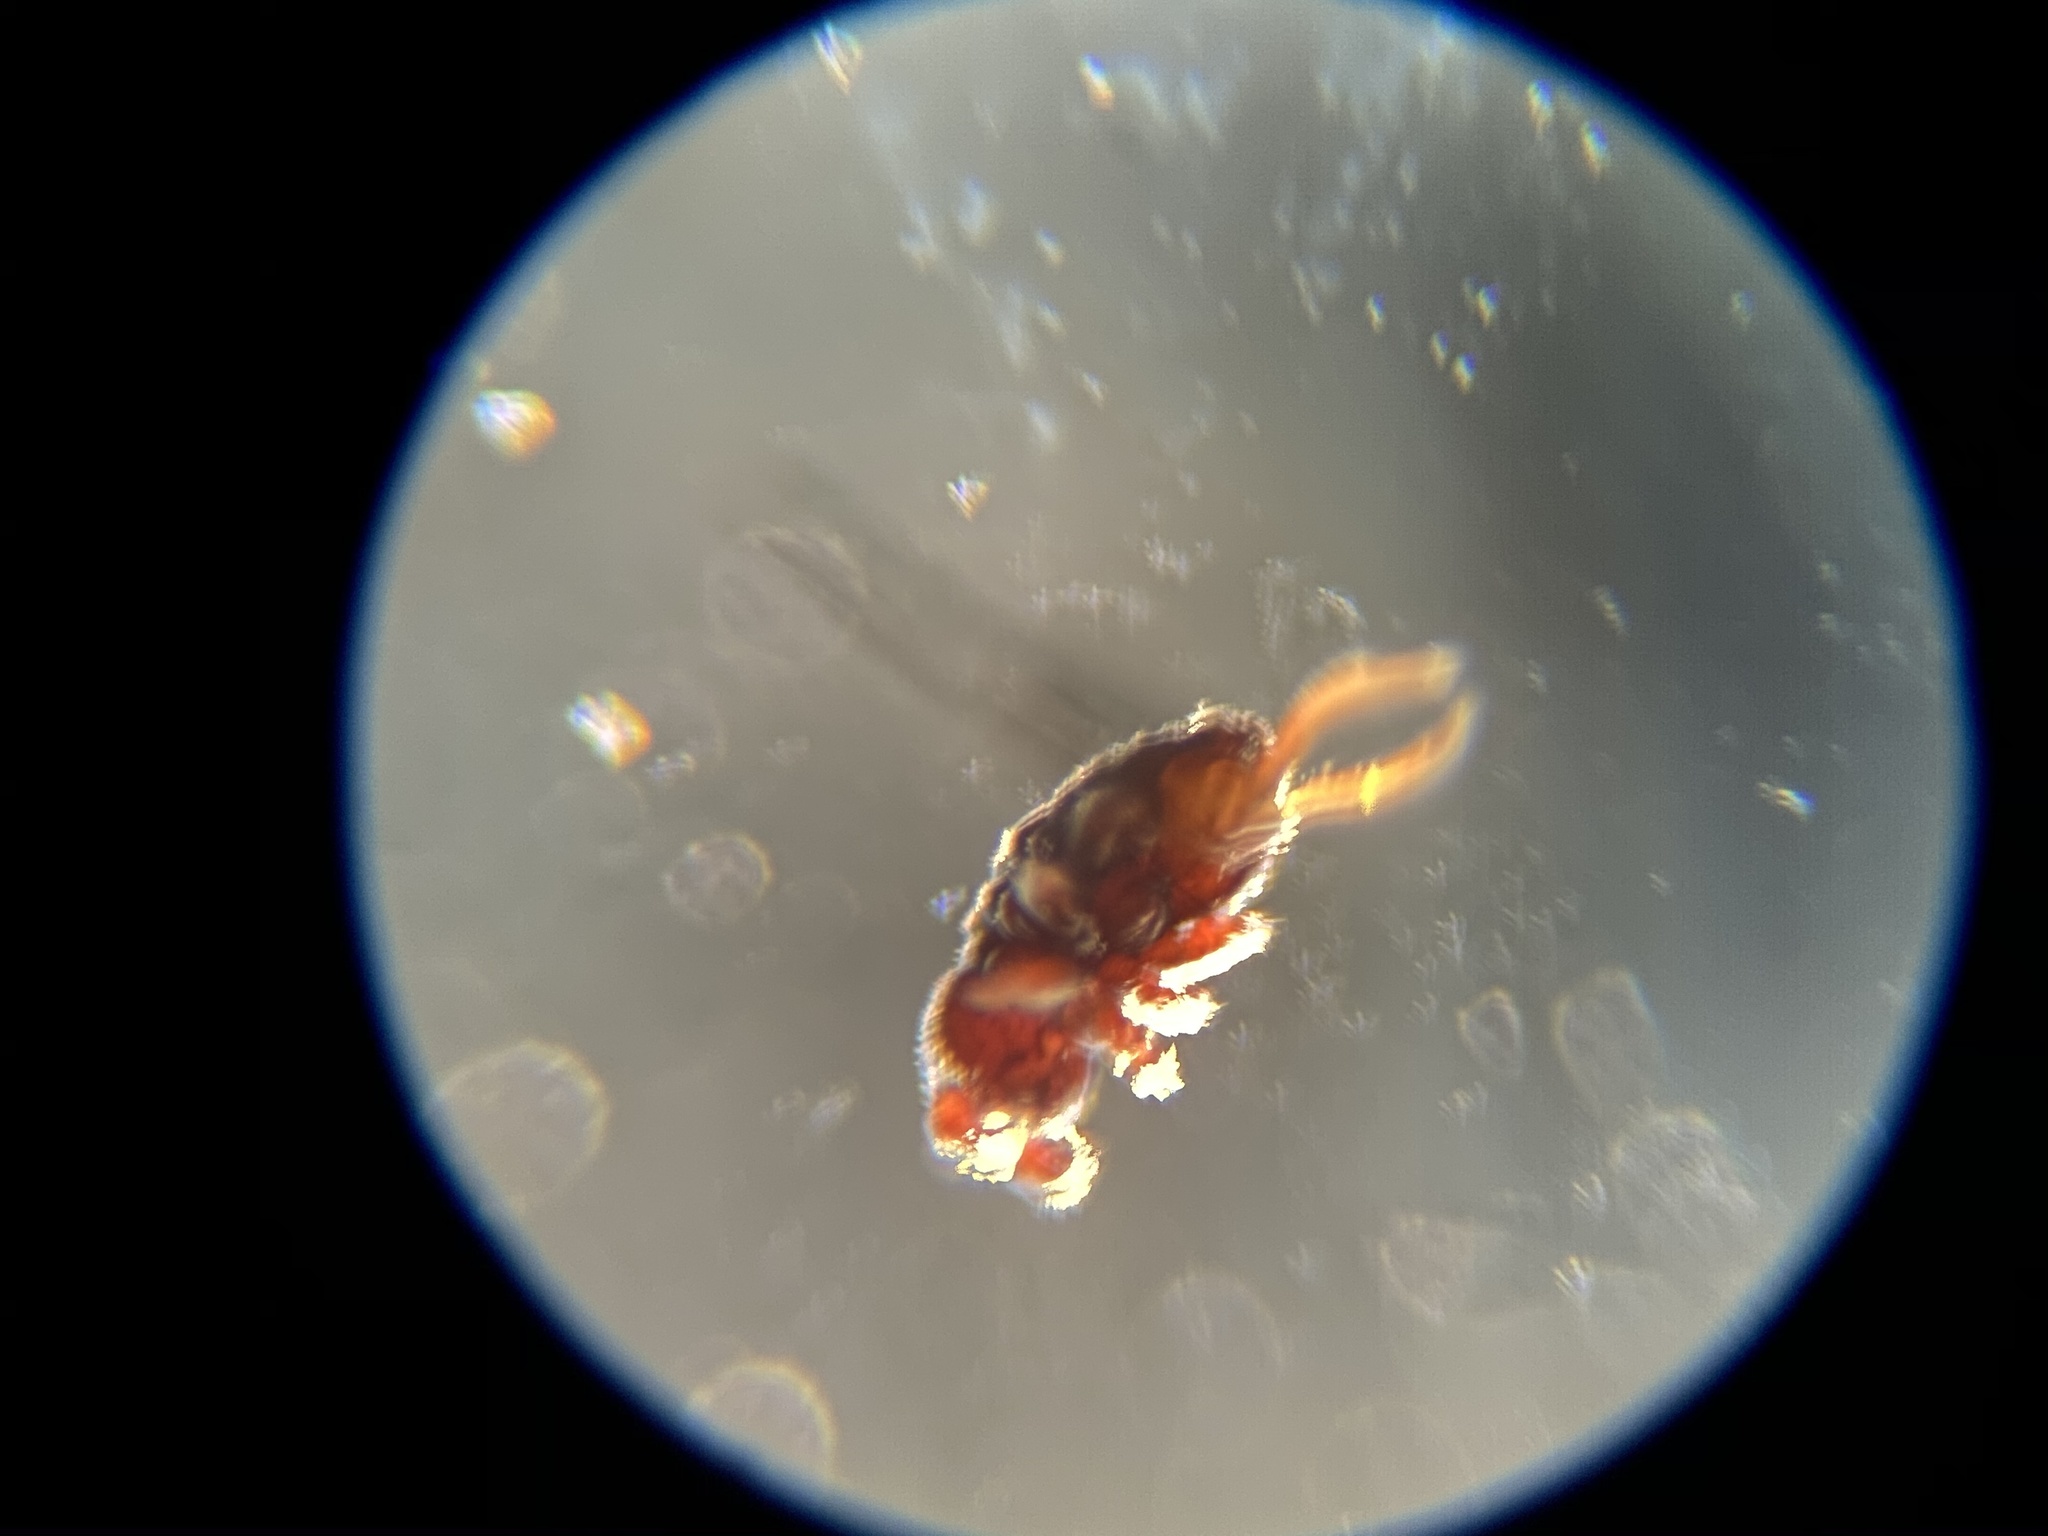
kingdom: Animalia
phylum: Arthropoda
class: Collembola
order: Poduromorpha
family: Poduridae
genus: Podura
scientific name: Podura aquatica
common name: Water springtail
